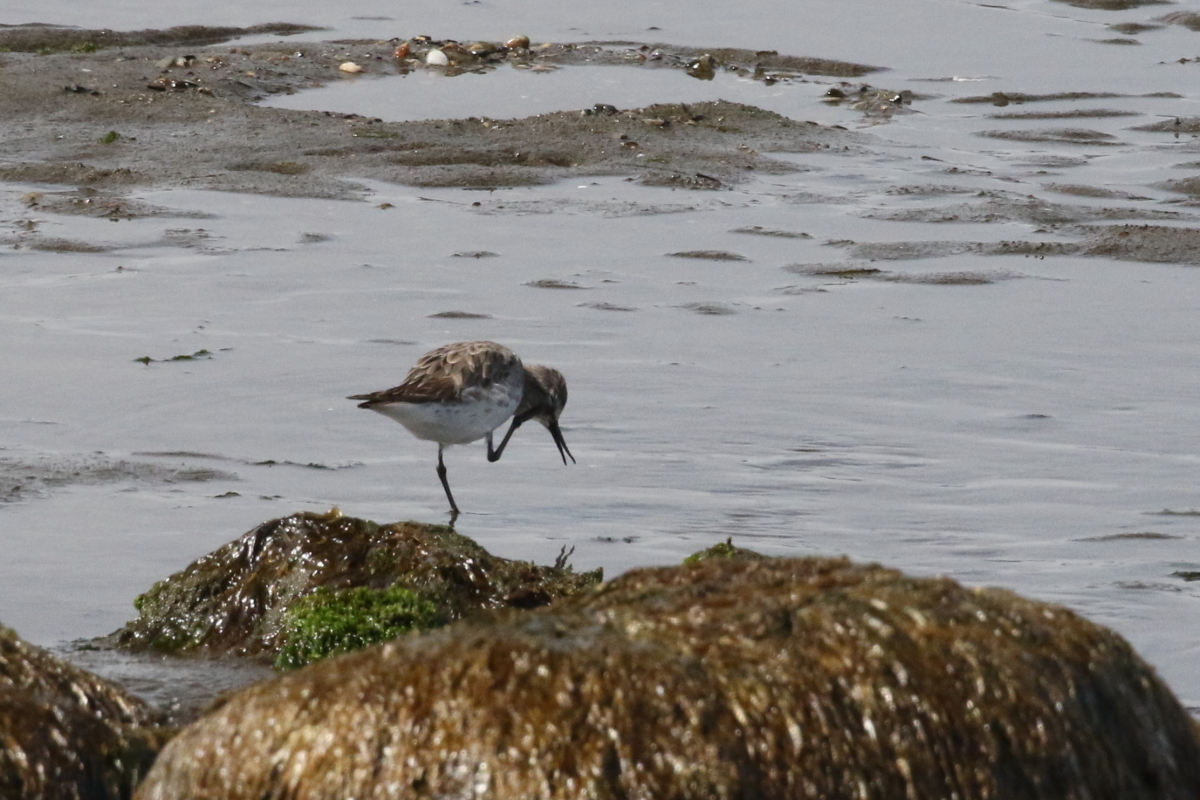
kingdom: Animalia
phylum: Chordata
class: Aves
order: Charadriiformes
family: Scolopacidae
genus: Calidris
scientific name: Calidris fuscicollis
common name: White-rumped sandpiper
